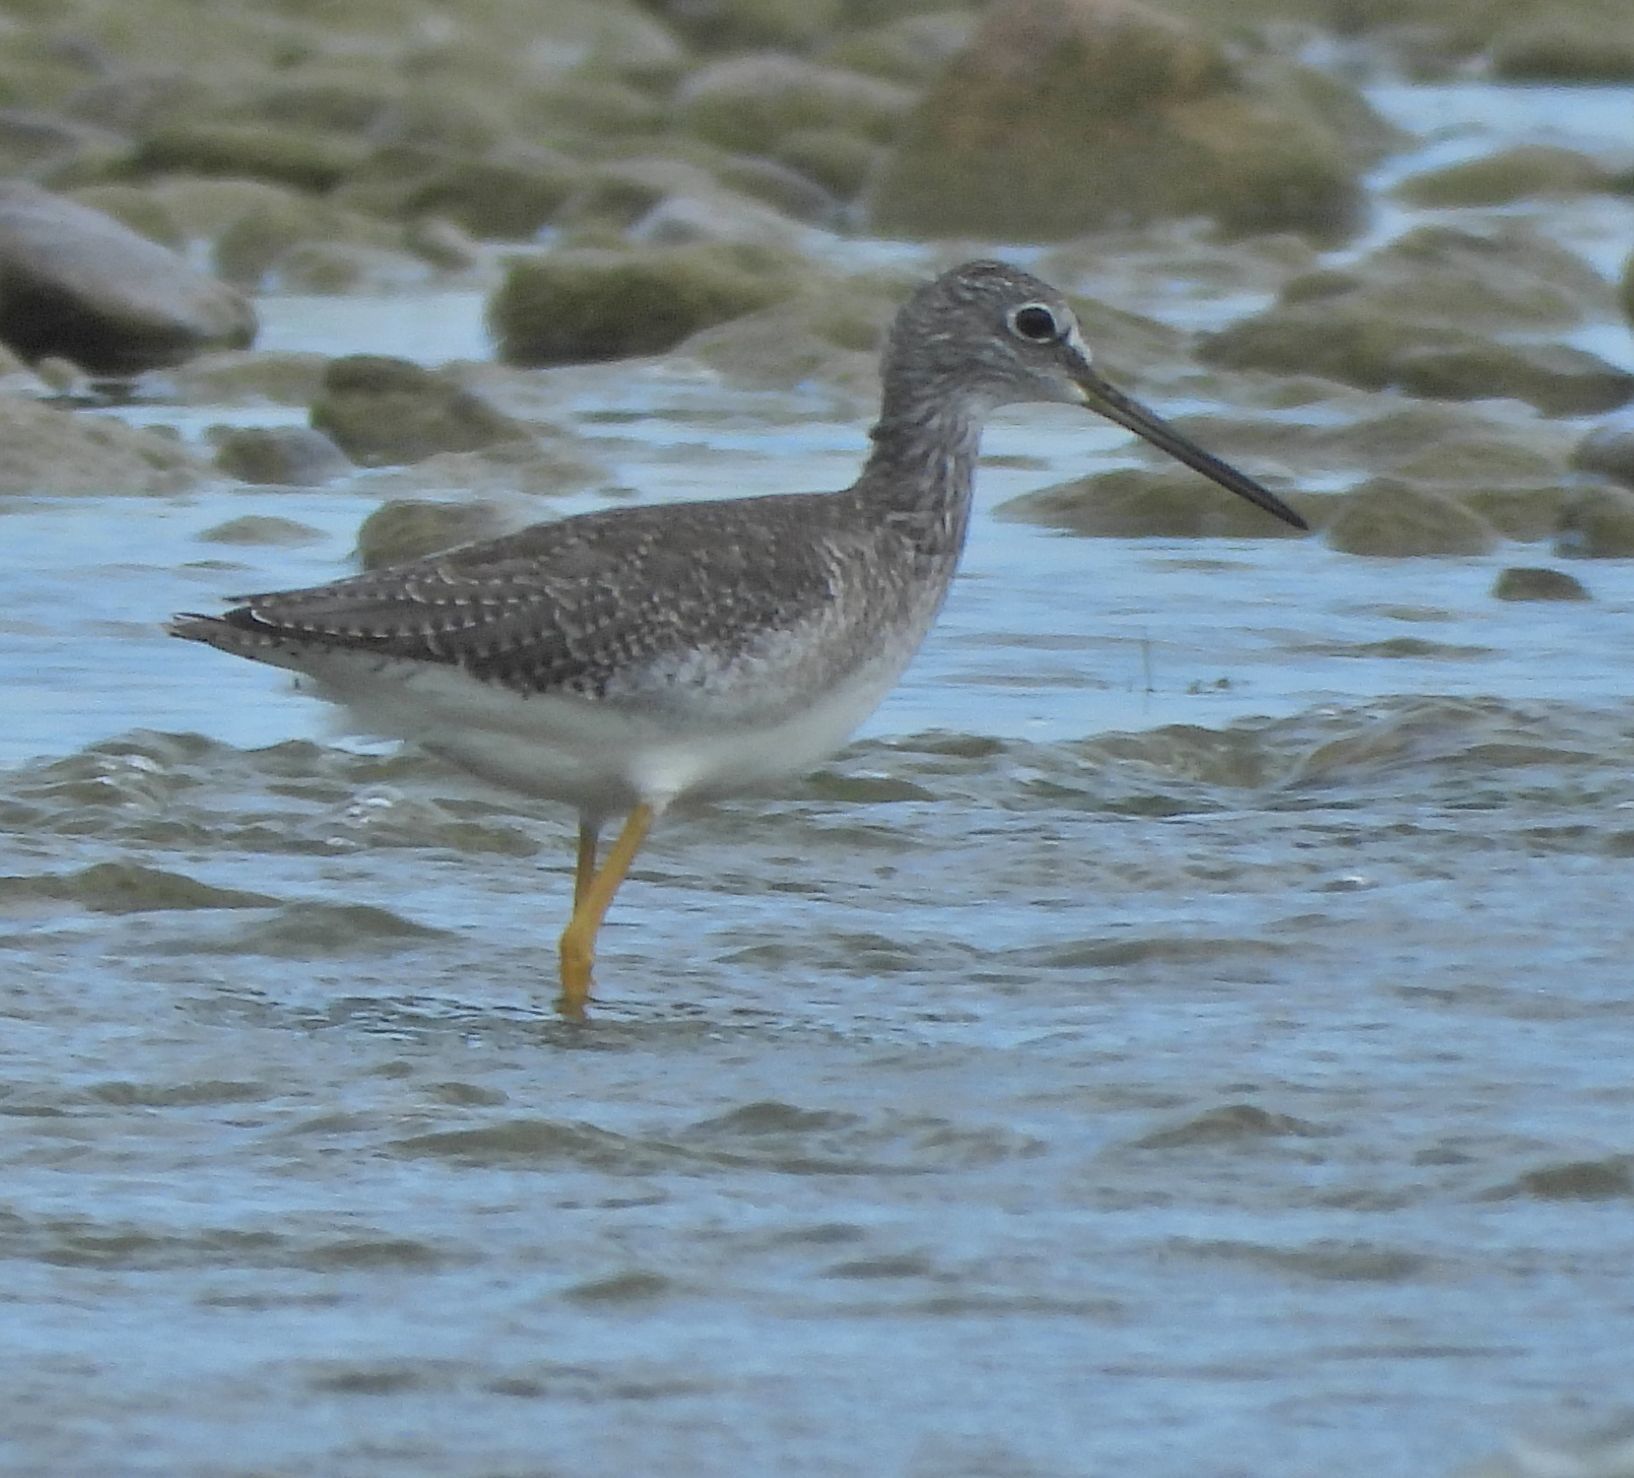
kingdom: Animalia
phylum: Chordata
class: Aves
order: Charadriiformes
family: Scolopacidae
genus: Tringa
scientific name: Tringa melanoleuca
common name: Greater yellowlegs
